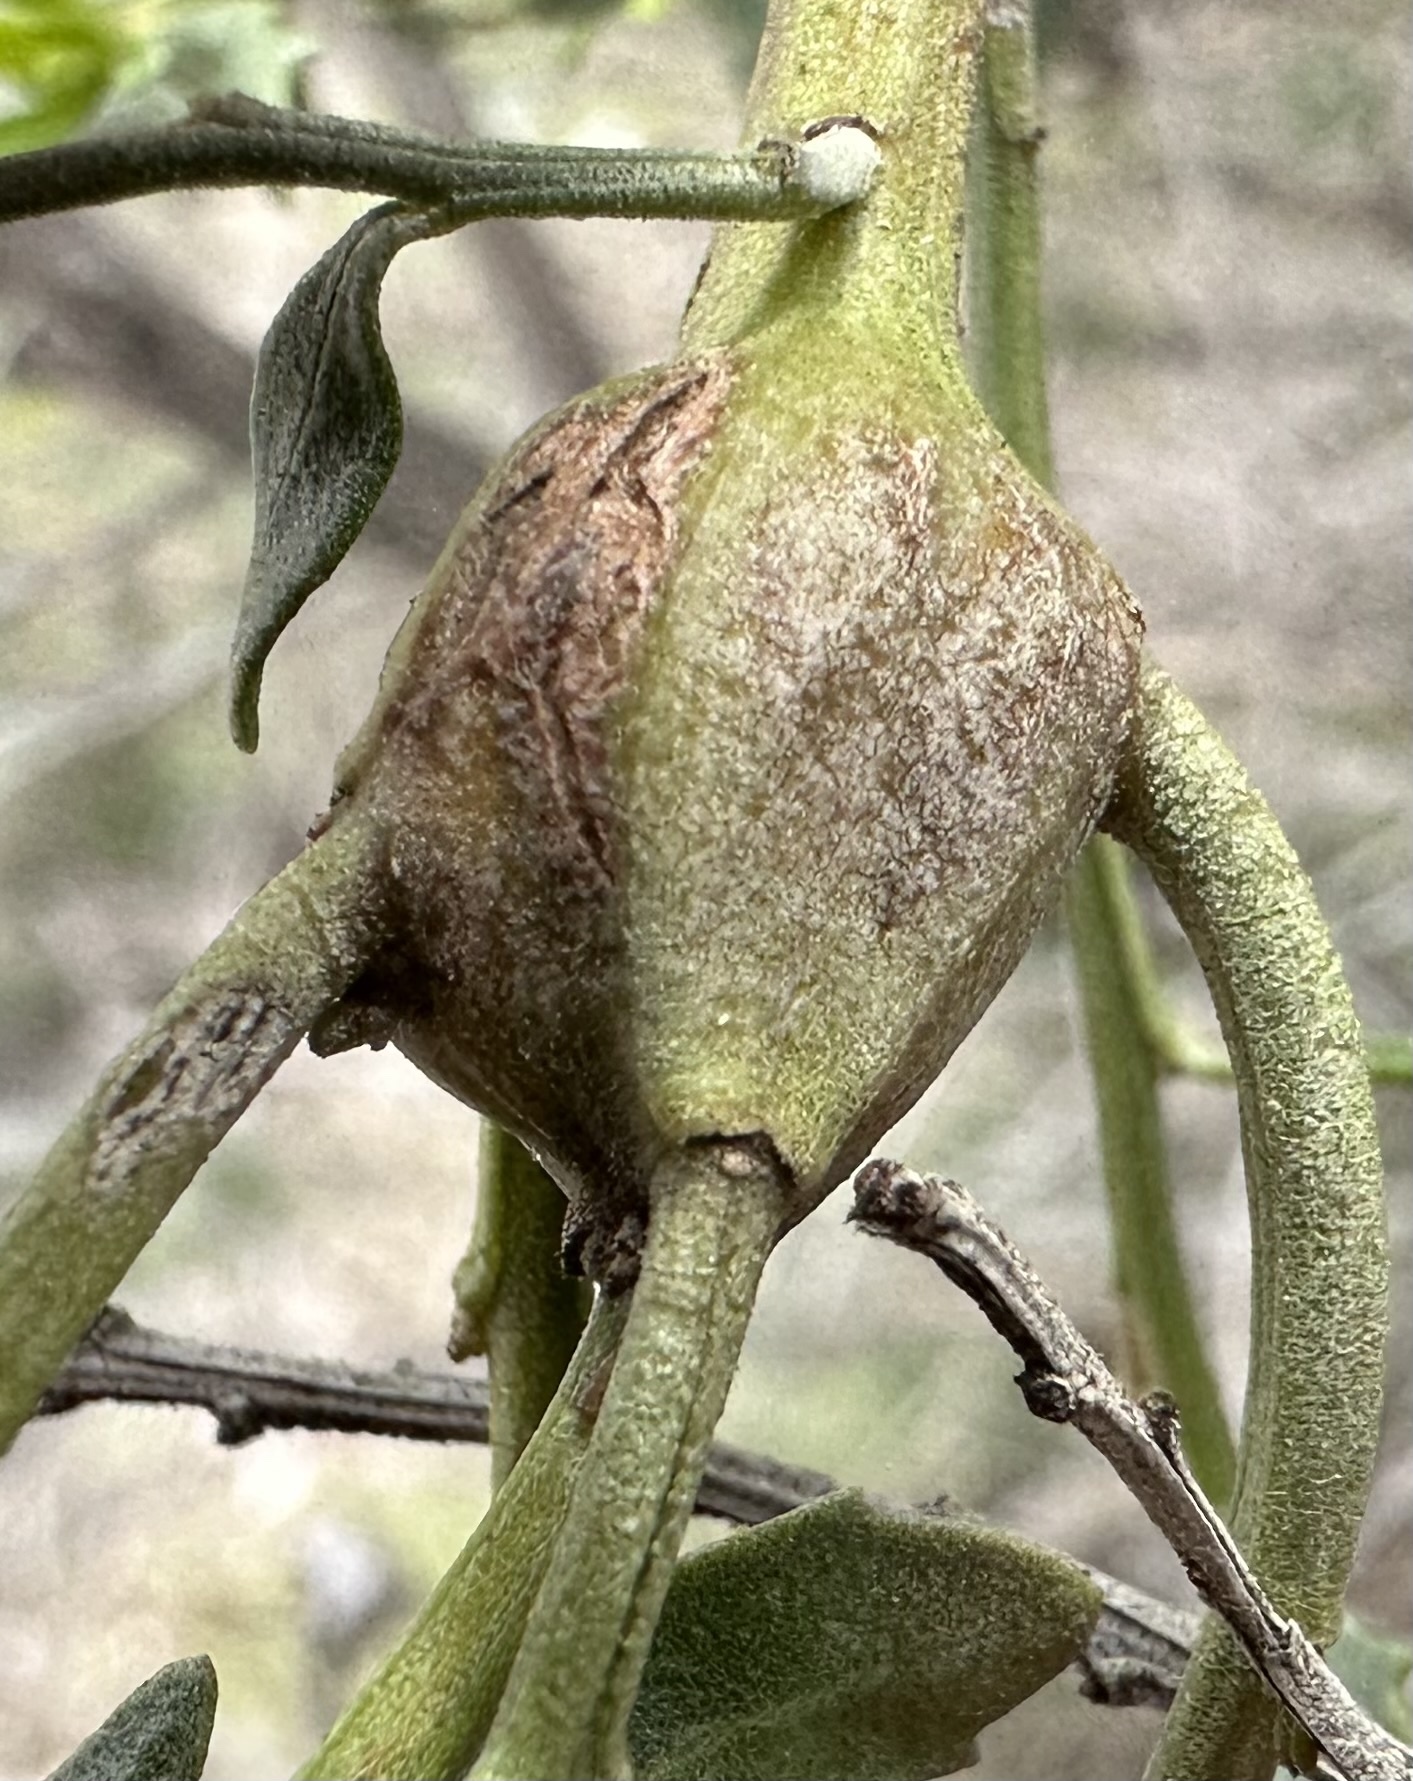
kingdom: Animalia
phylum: Arthropoda
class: Insecta
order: Lepidoptera
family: Gelechiidae
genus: Gnorimoschema
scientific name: Gnorimoschema baccharisella
